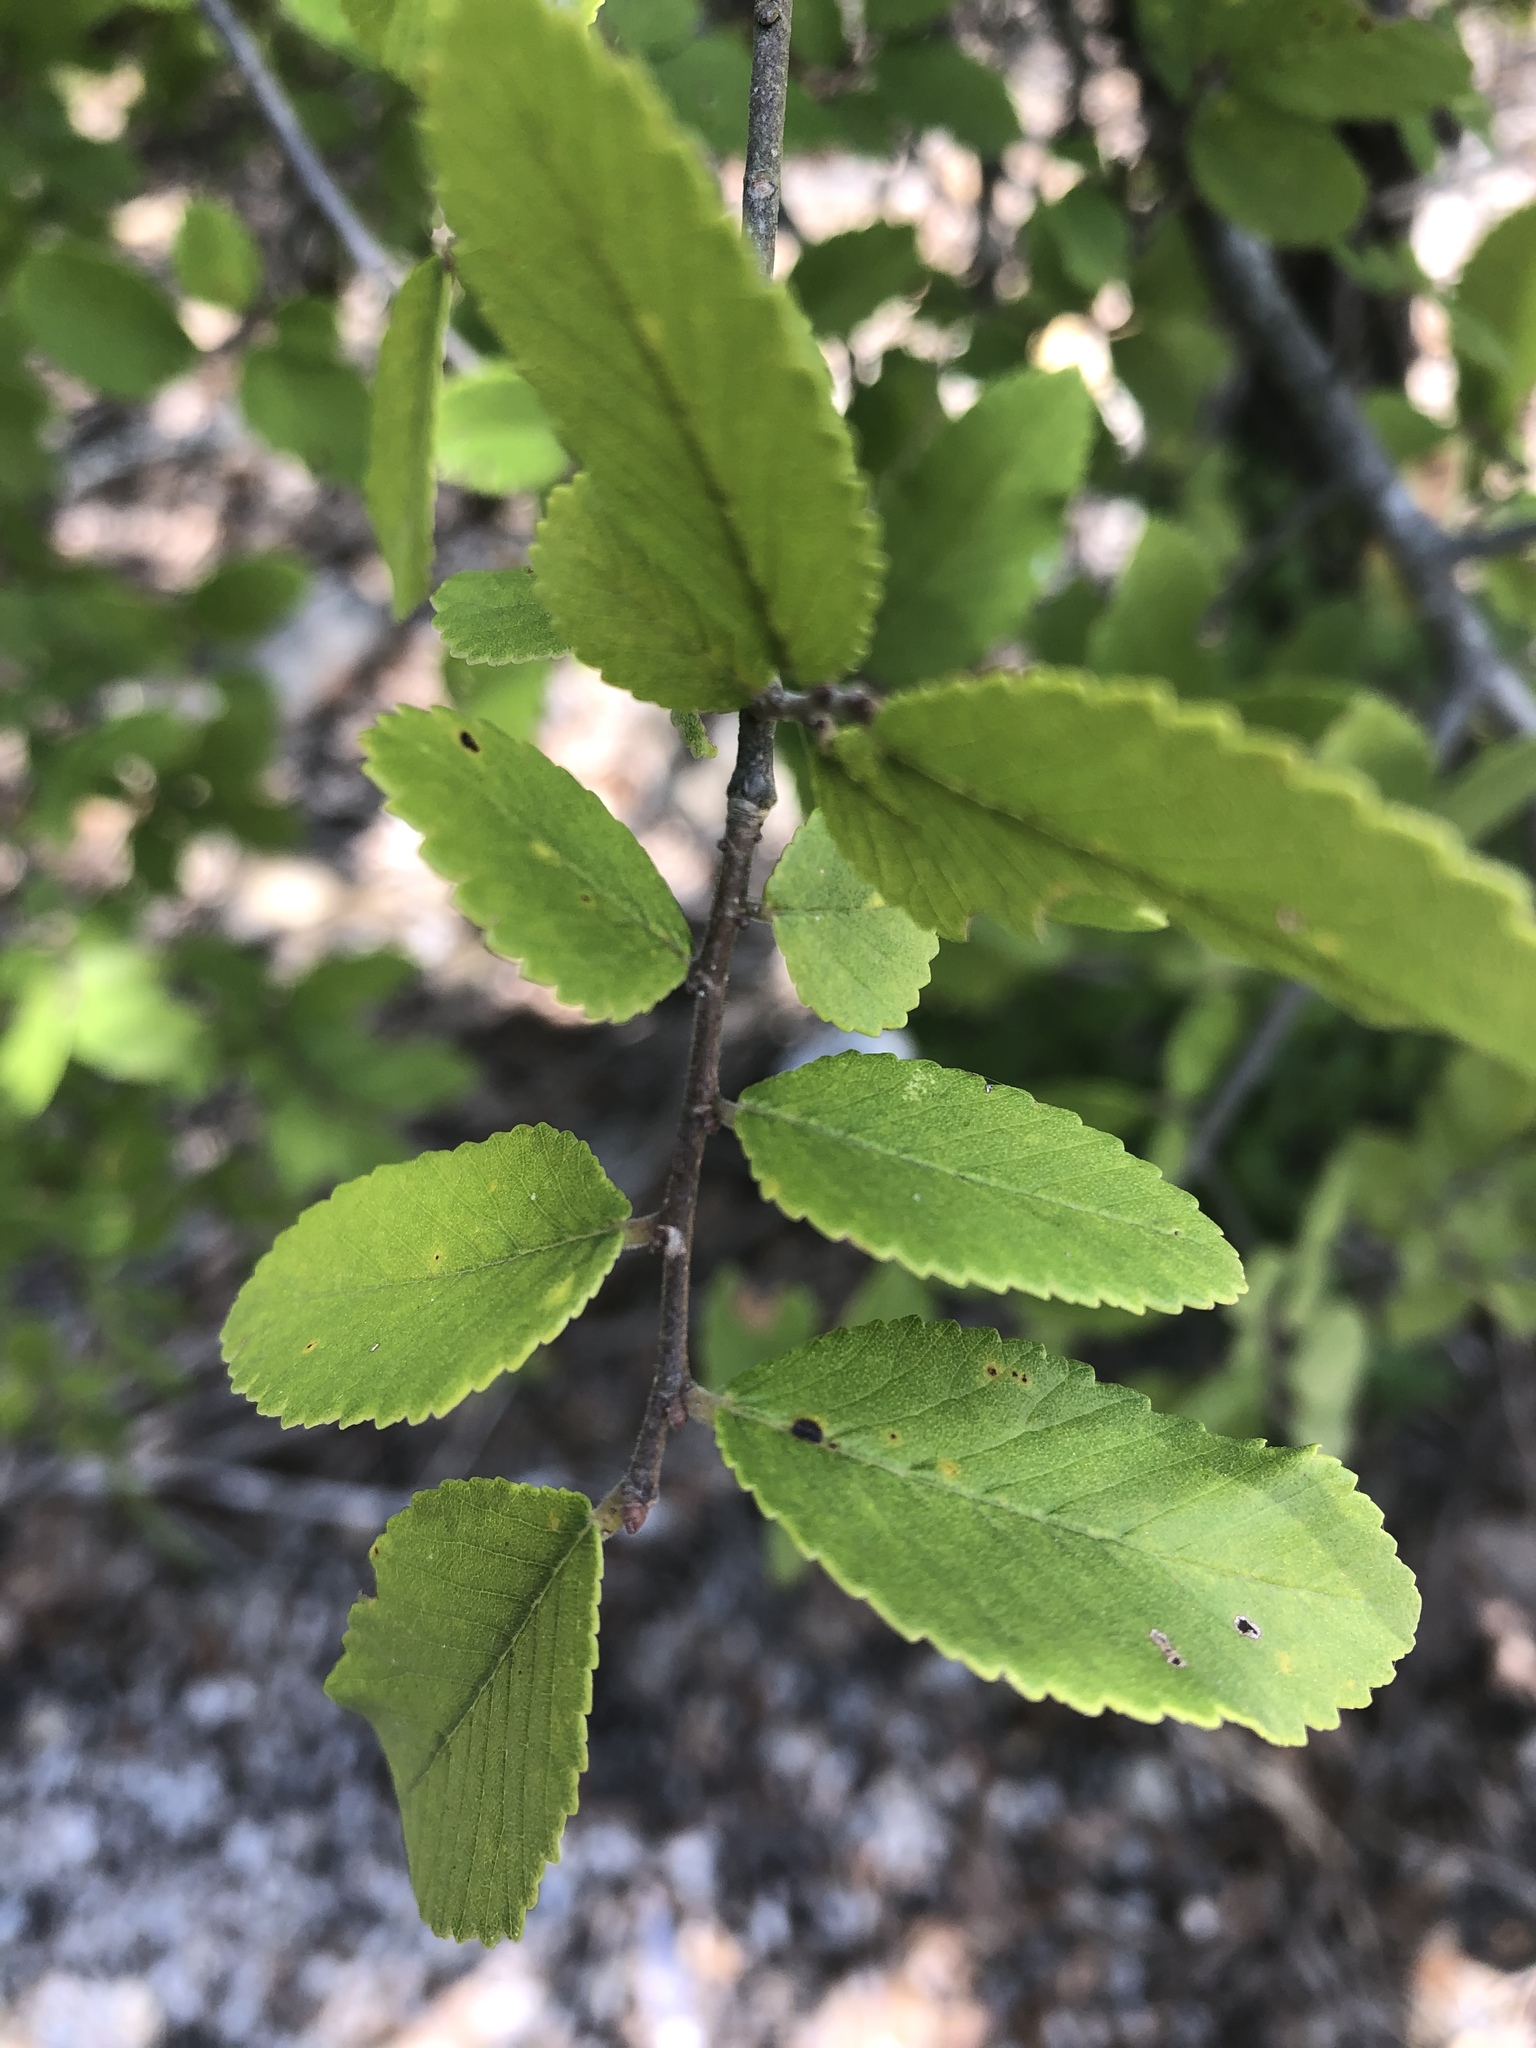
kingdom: Plantae
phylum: Tracheophyta
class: Magnoliopsida
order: Rosales
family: Ulmaceae
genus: Ulmus
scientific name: Ulmus crassifolia
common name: Basket elm
